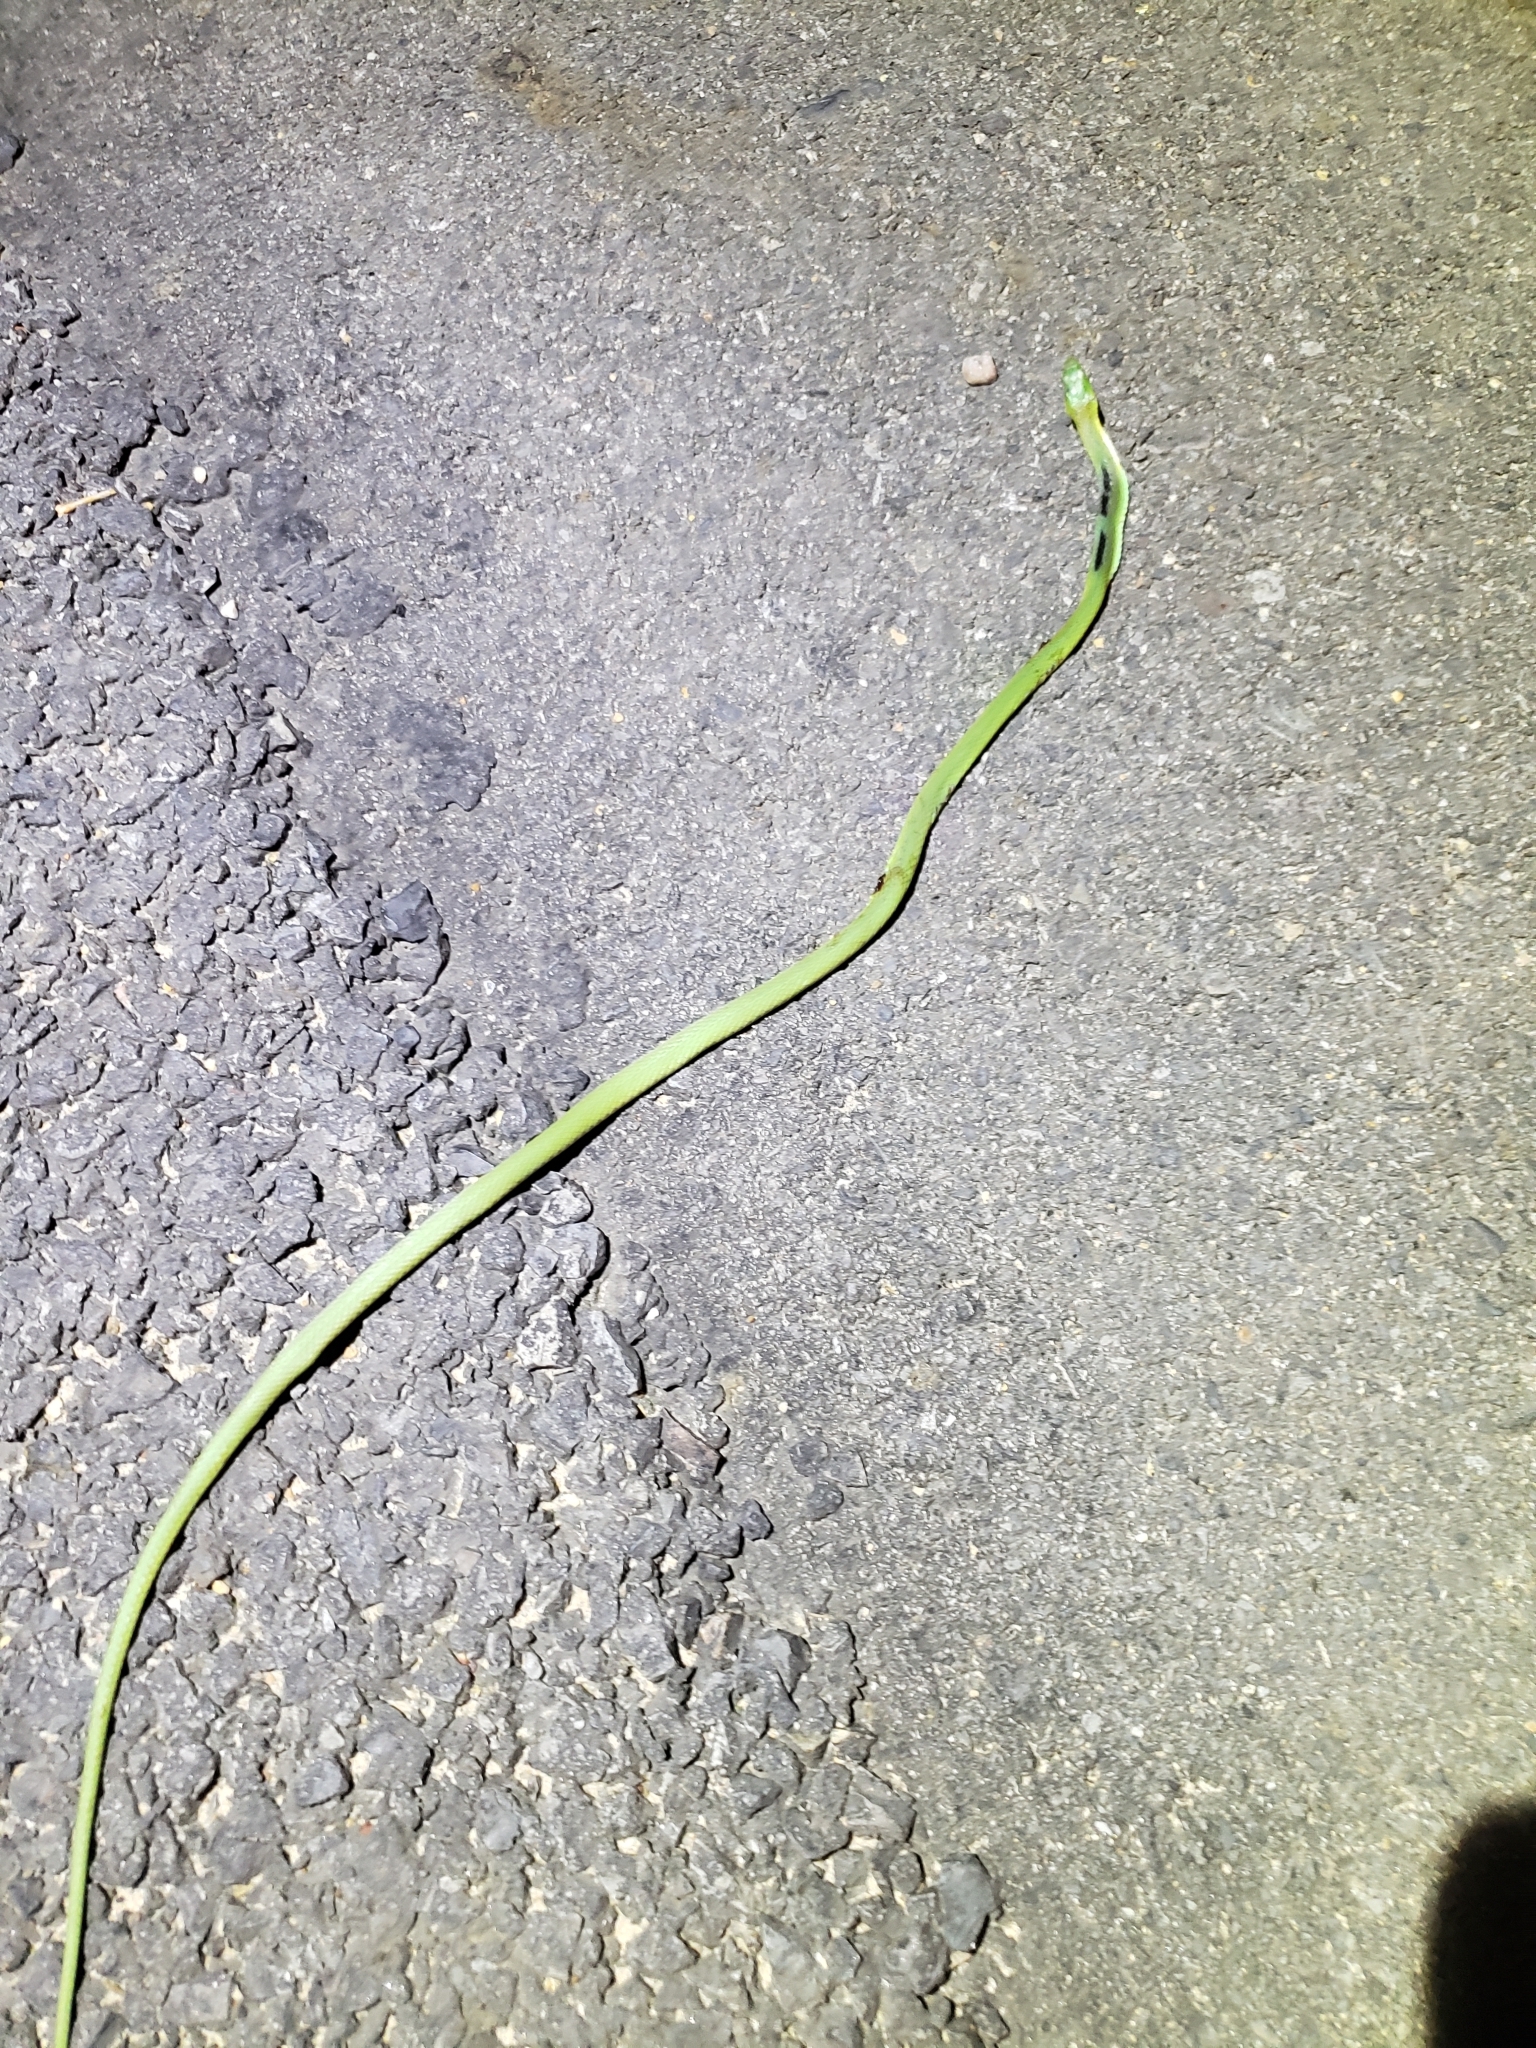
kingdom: Animalia
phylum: Chordata
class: Squamata
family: Colubridae
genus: Opheodrys
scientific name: Opheodrys aestivus
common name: Rough greensnake
